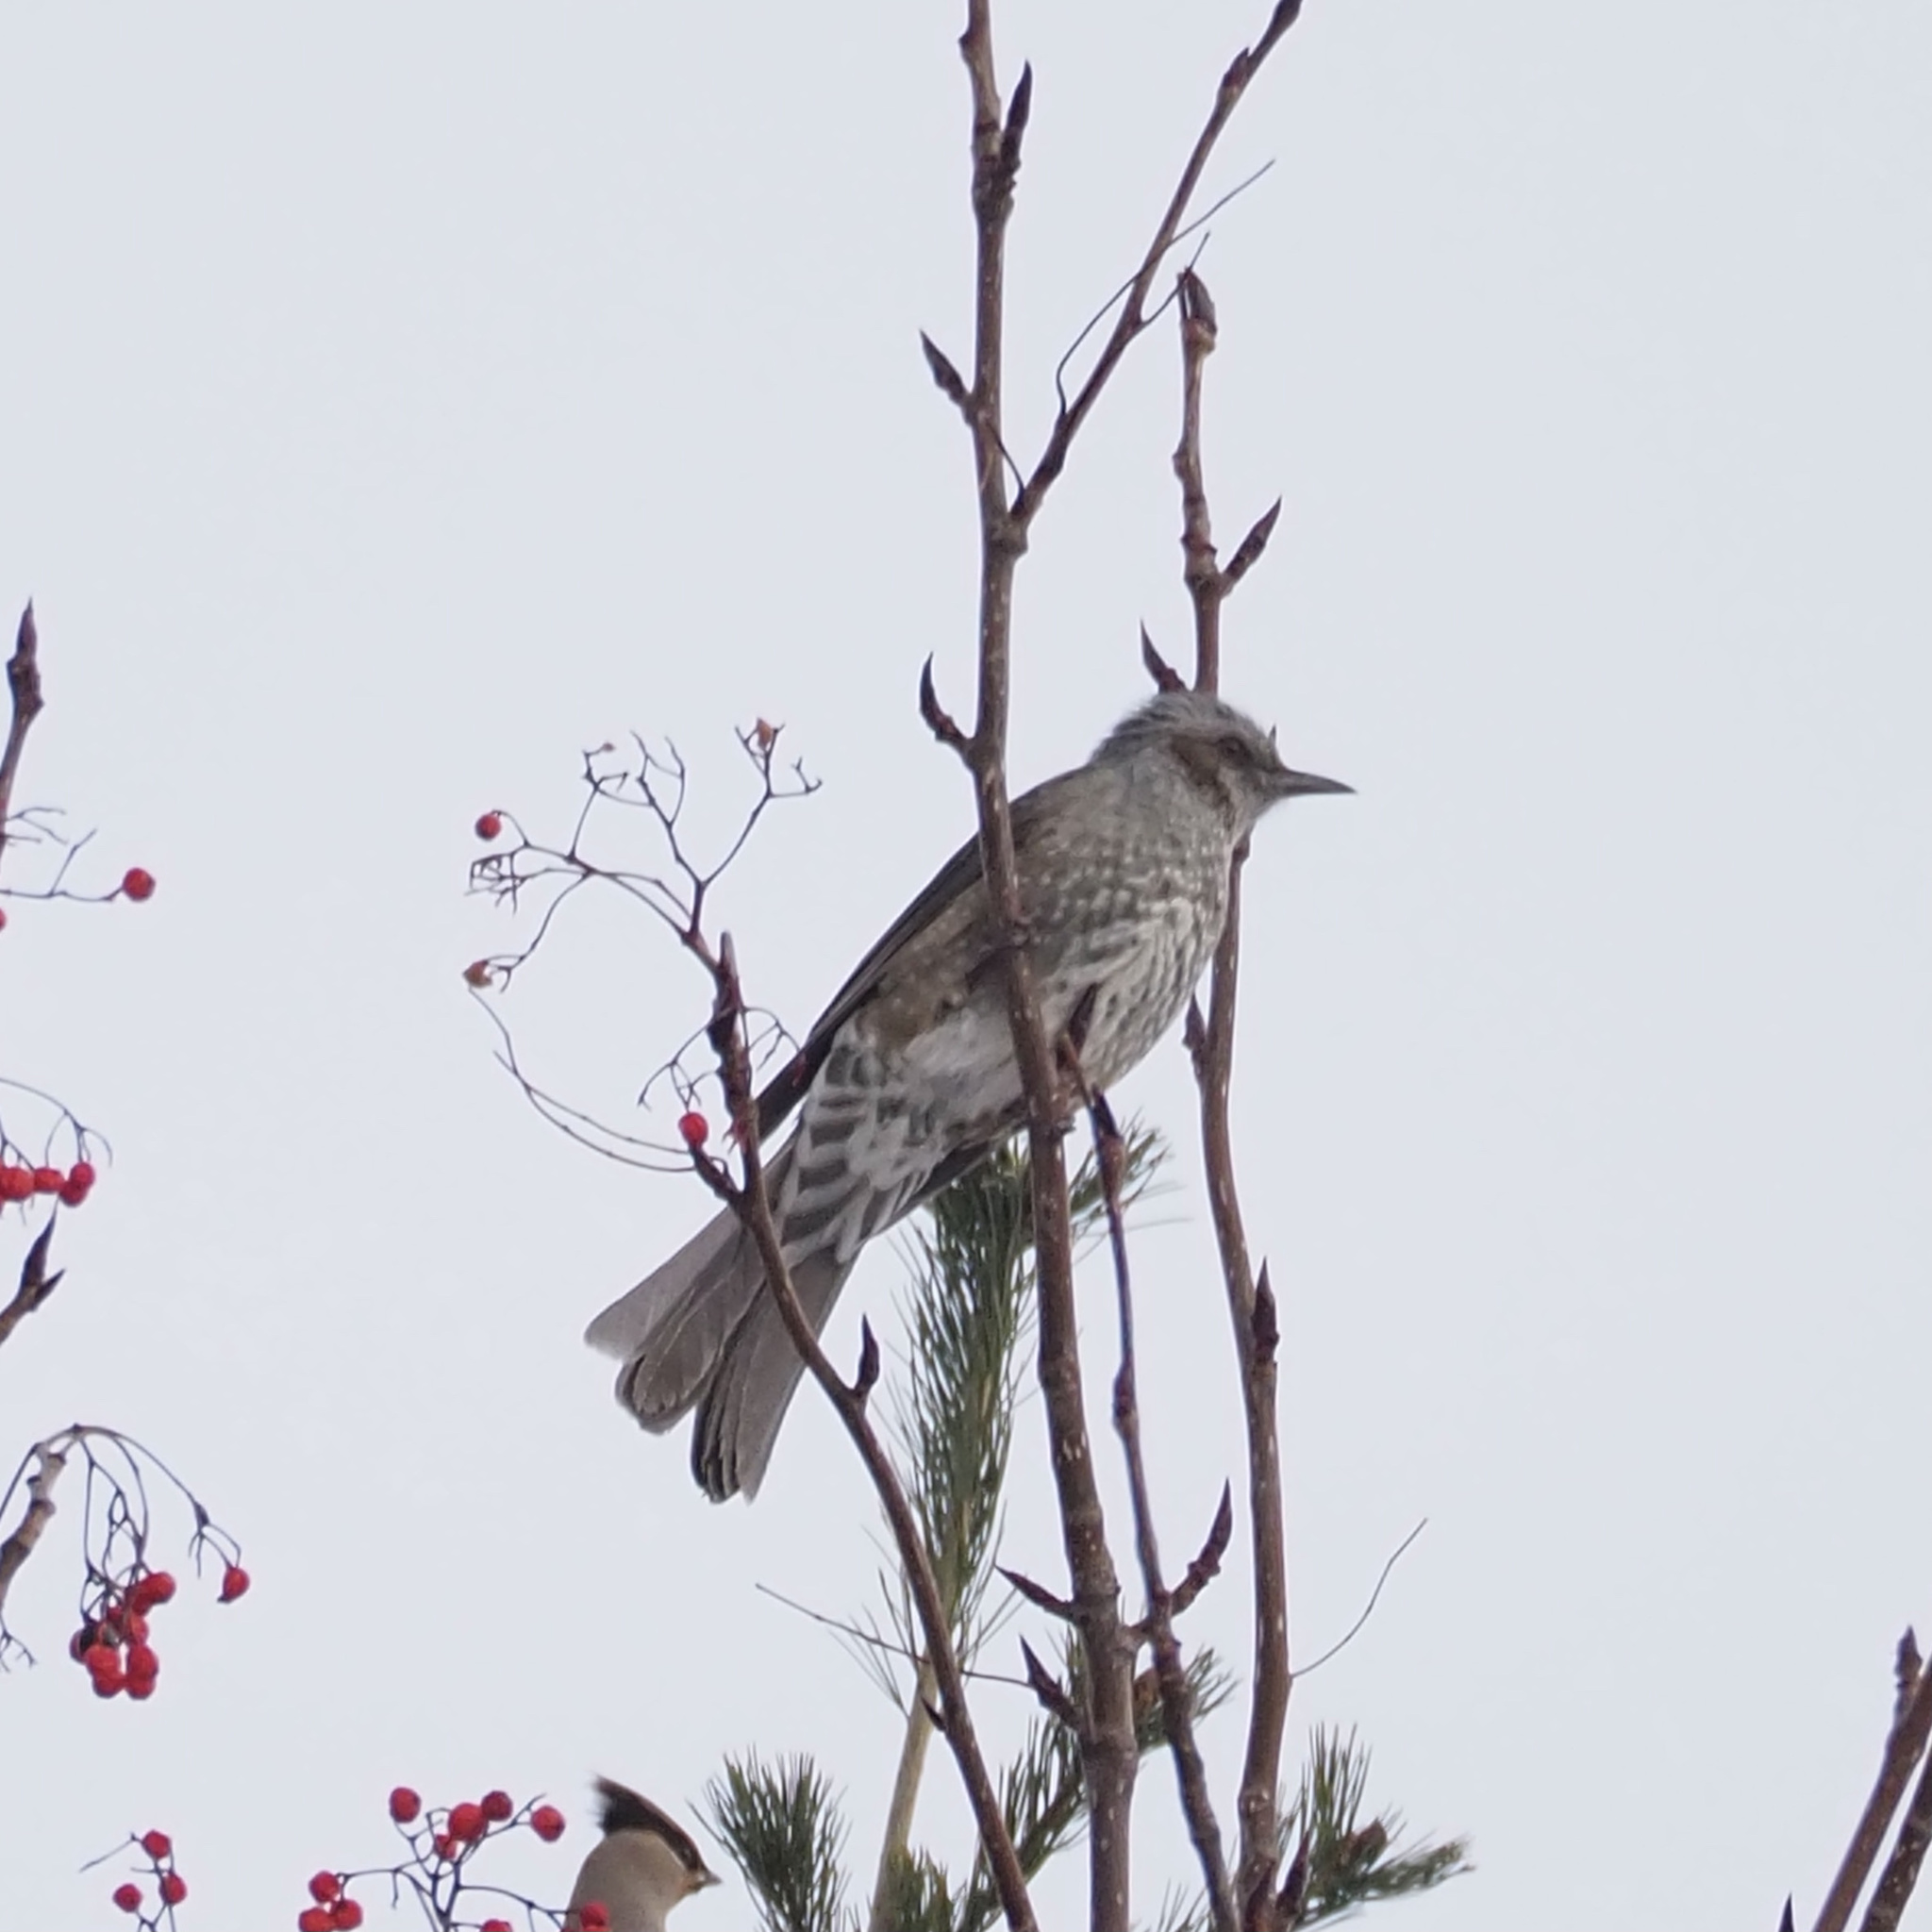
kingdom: Animalia
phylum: Chordata
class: Aves
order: Passeriformes
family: Pycnonotidae
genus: Hypsipetes
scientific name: Hypsipetes amaurotis
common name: Brown-eared bulbul
